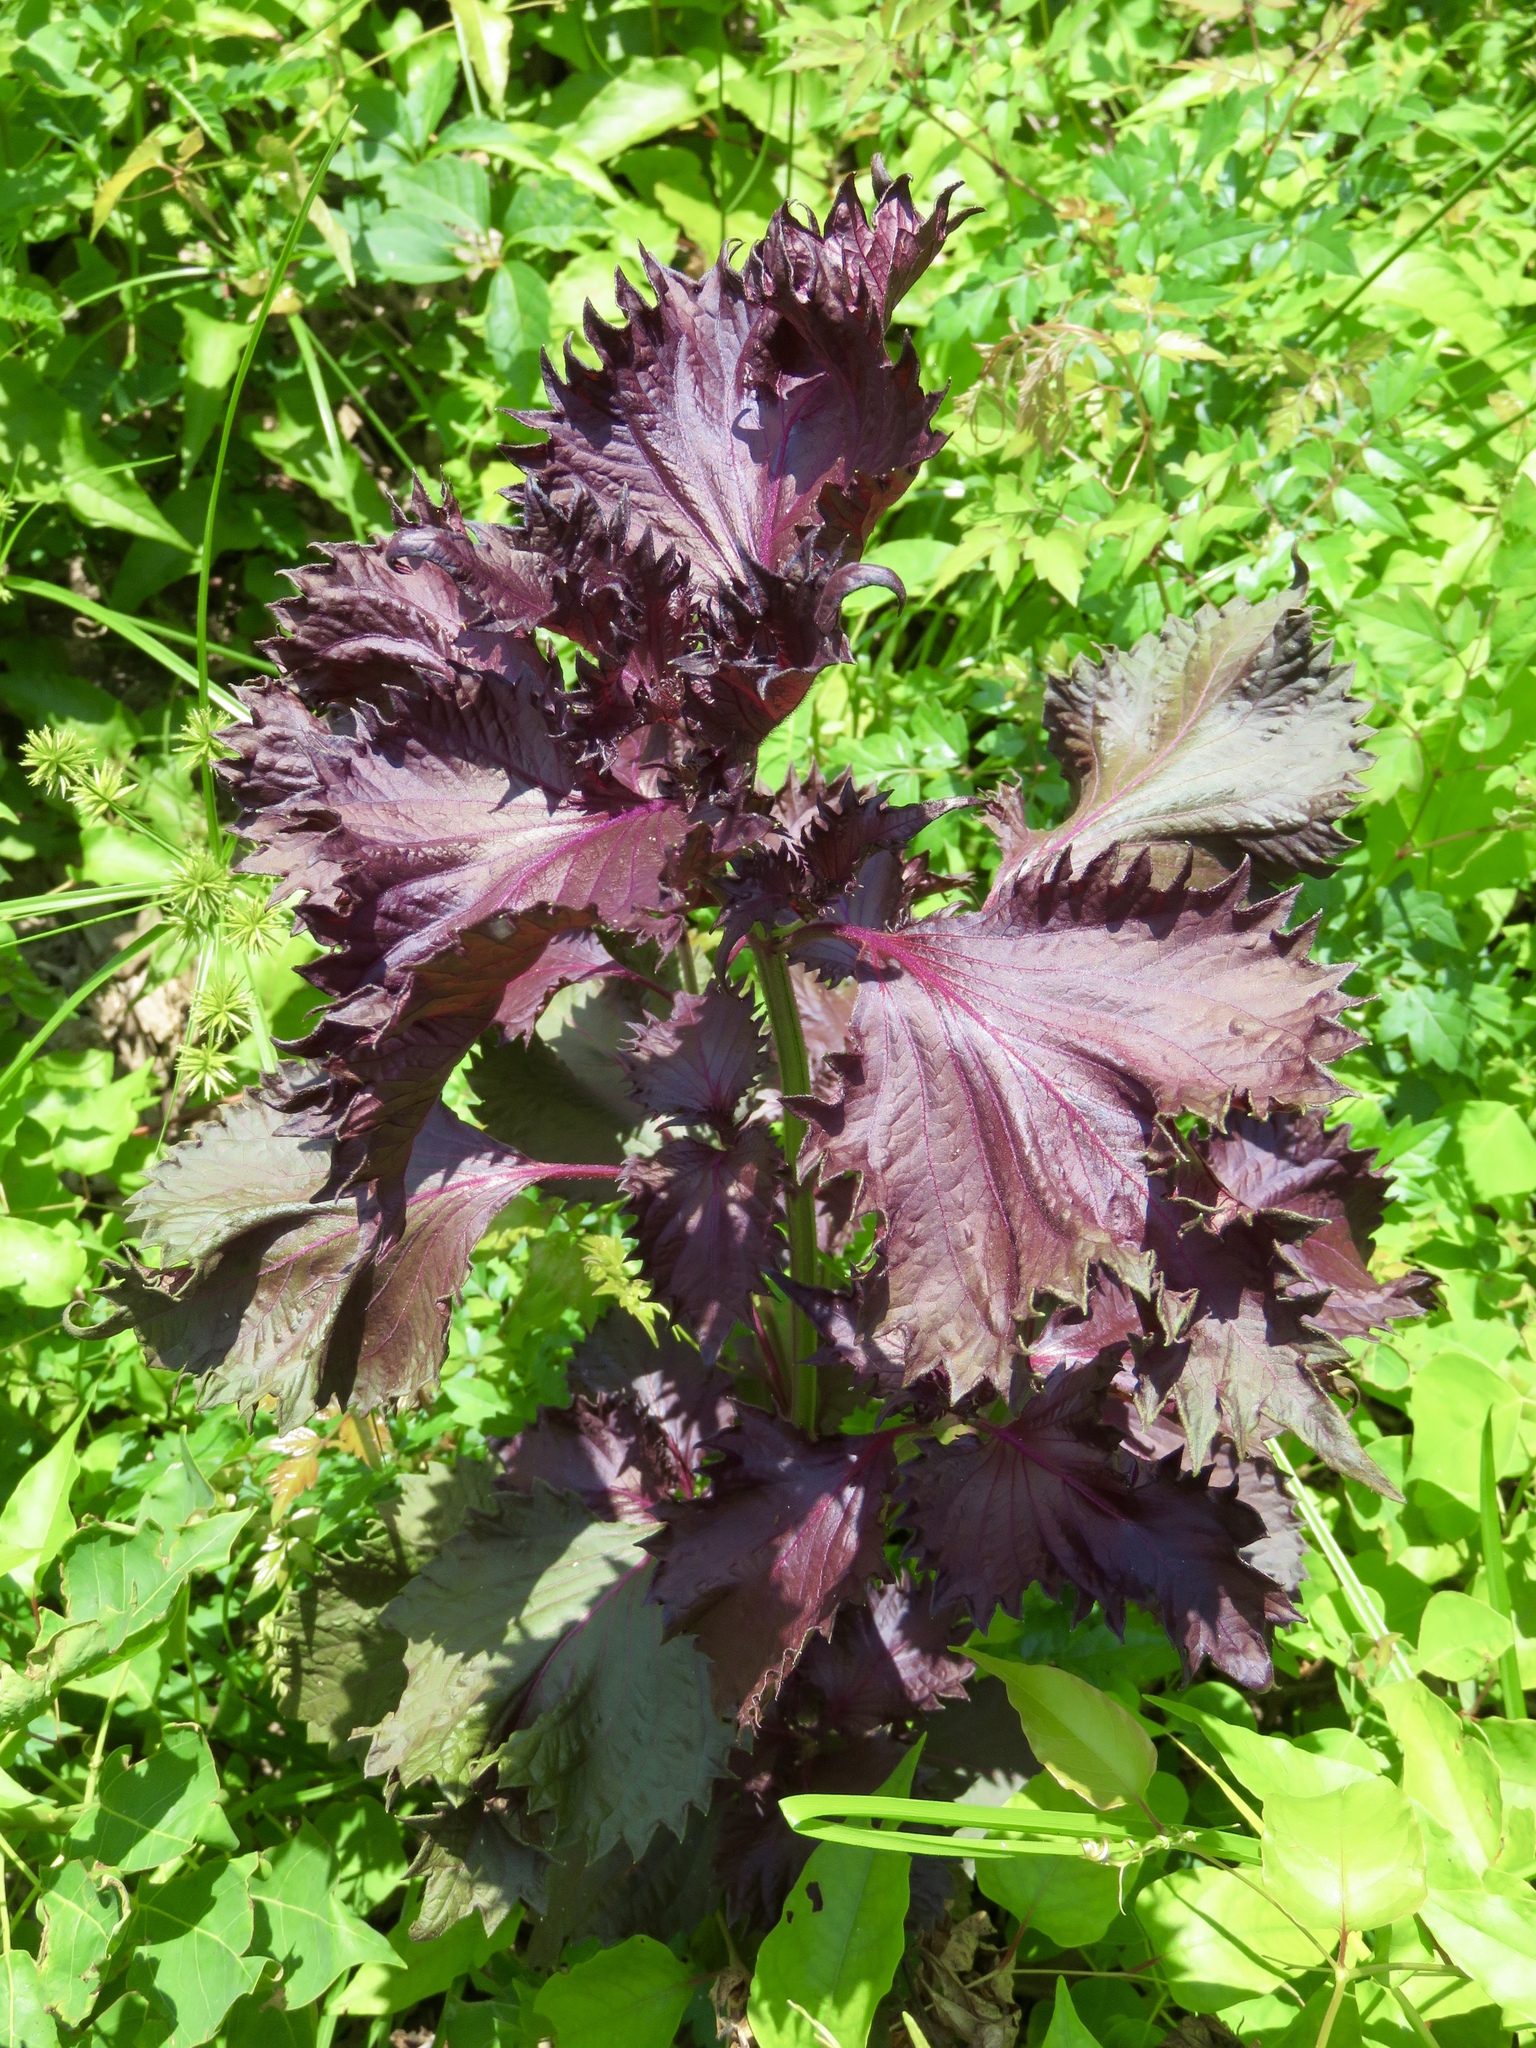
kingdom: Plantae
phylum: Tracheophyta
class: Magnoliopsida
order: Lamiales
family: Lamiaceae
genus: Perilla
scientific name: Perilla frutescens
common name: Perilla
